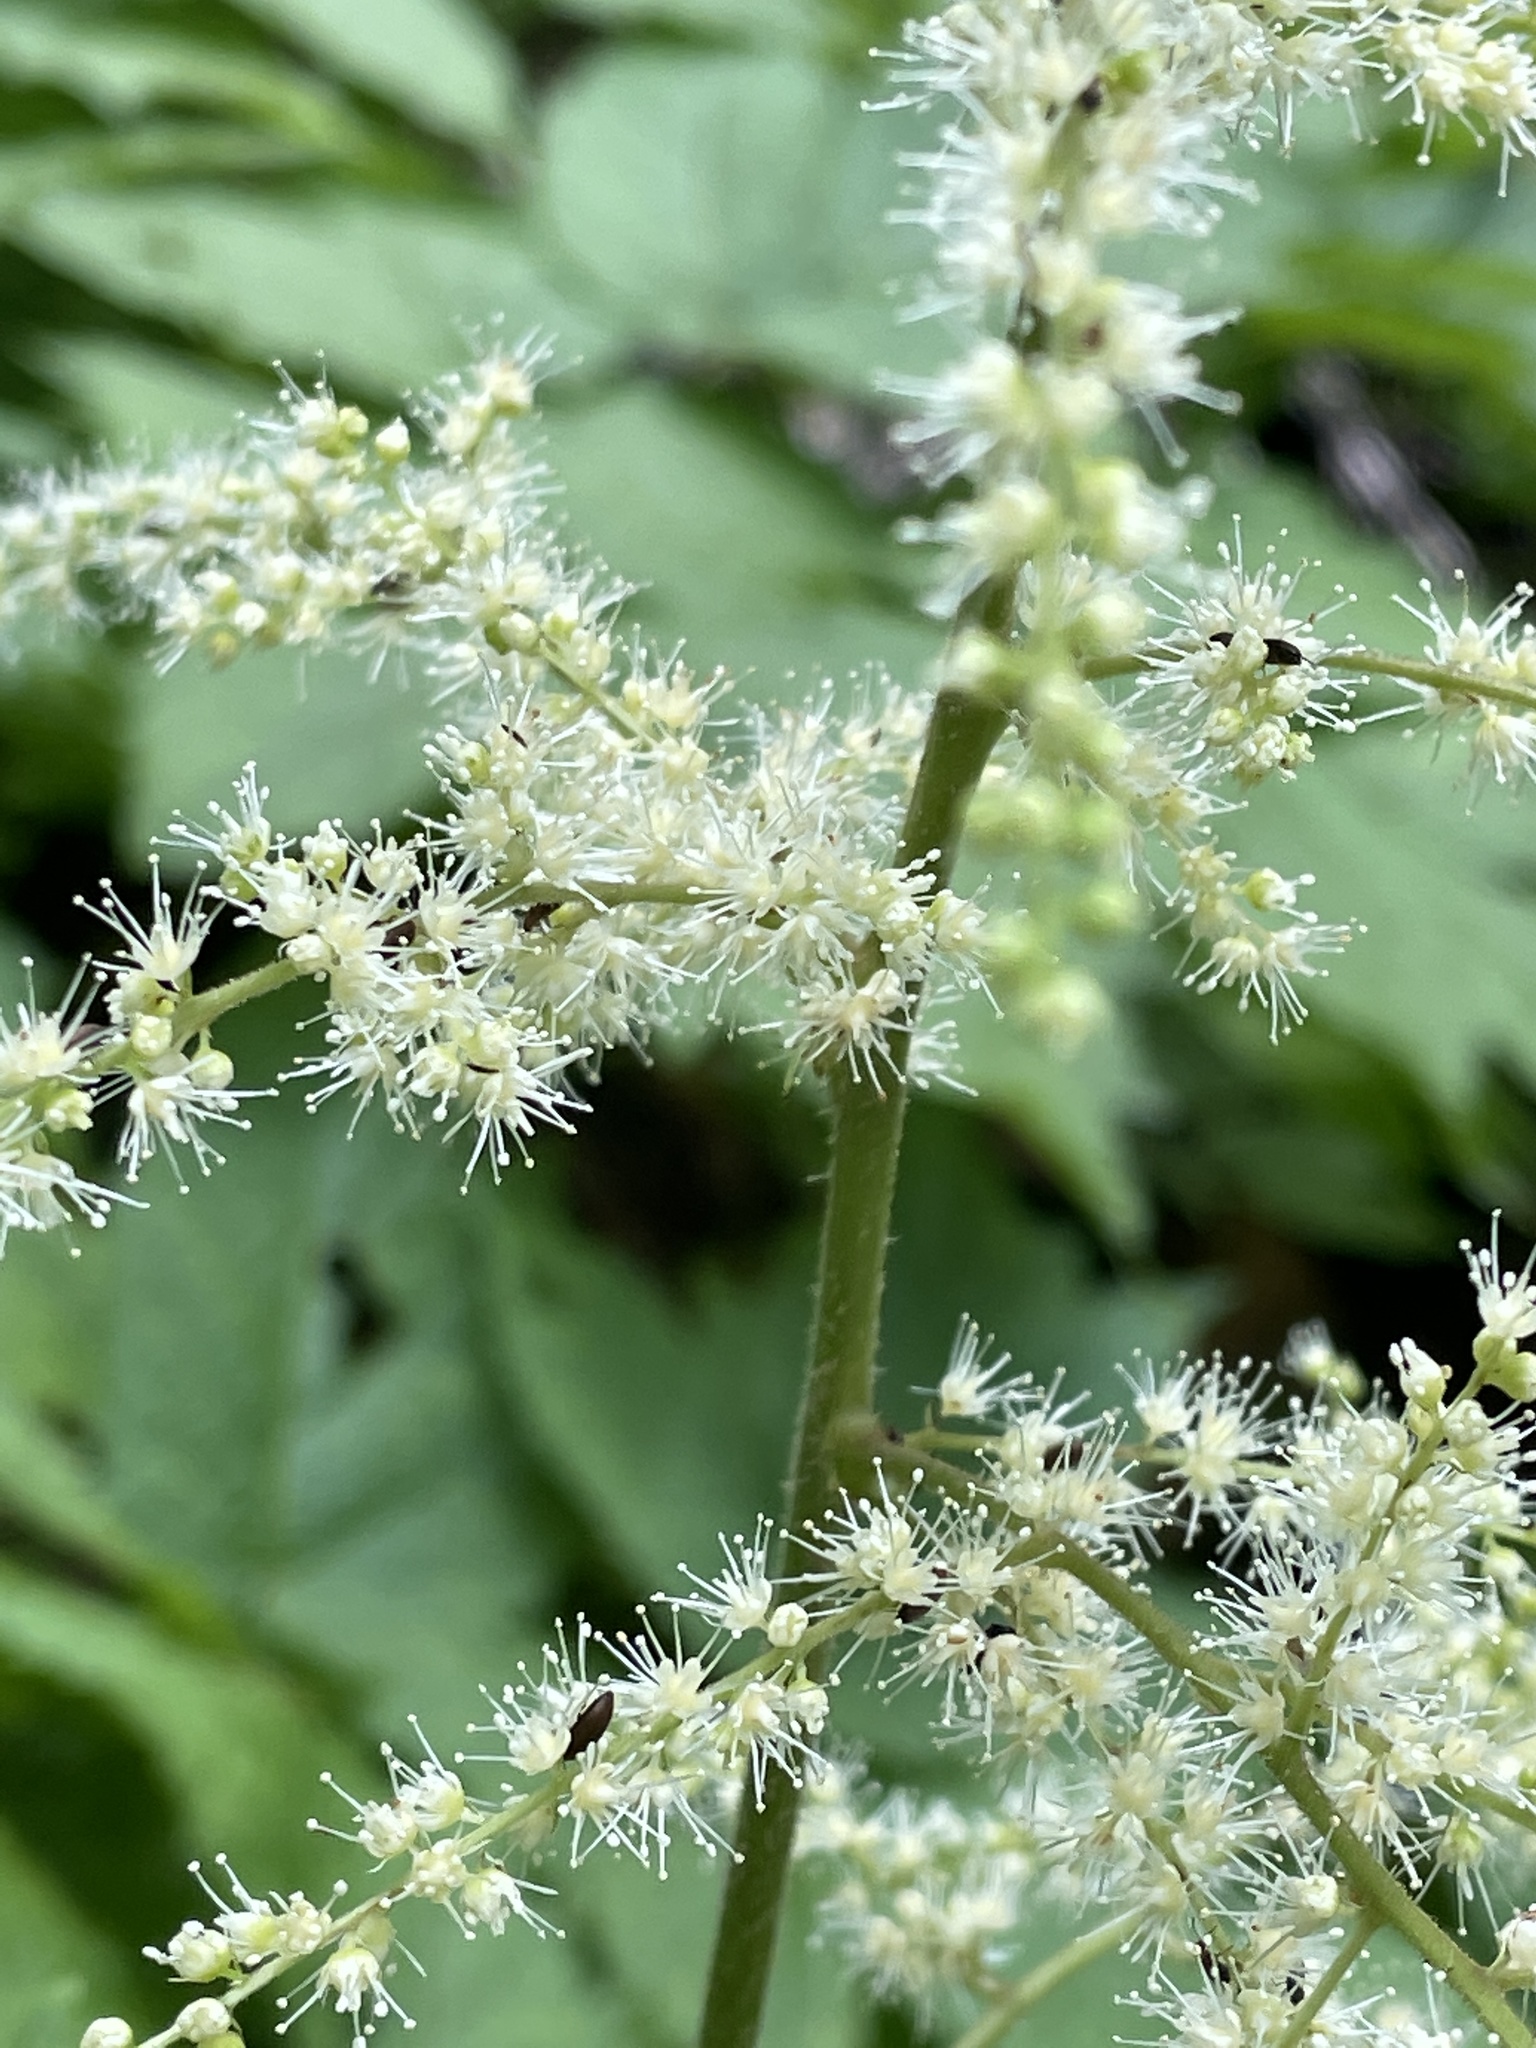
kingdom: Plantae
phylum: Tracheophyta
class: Magnoliopsida
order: Saxifragales
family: Saxifragaceae
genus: Astilbe
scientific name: Astilbe biternata
